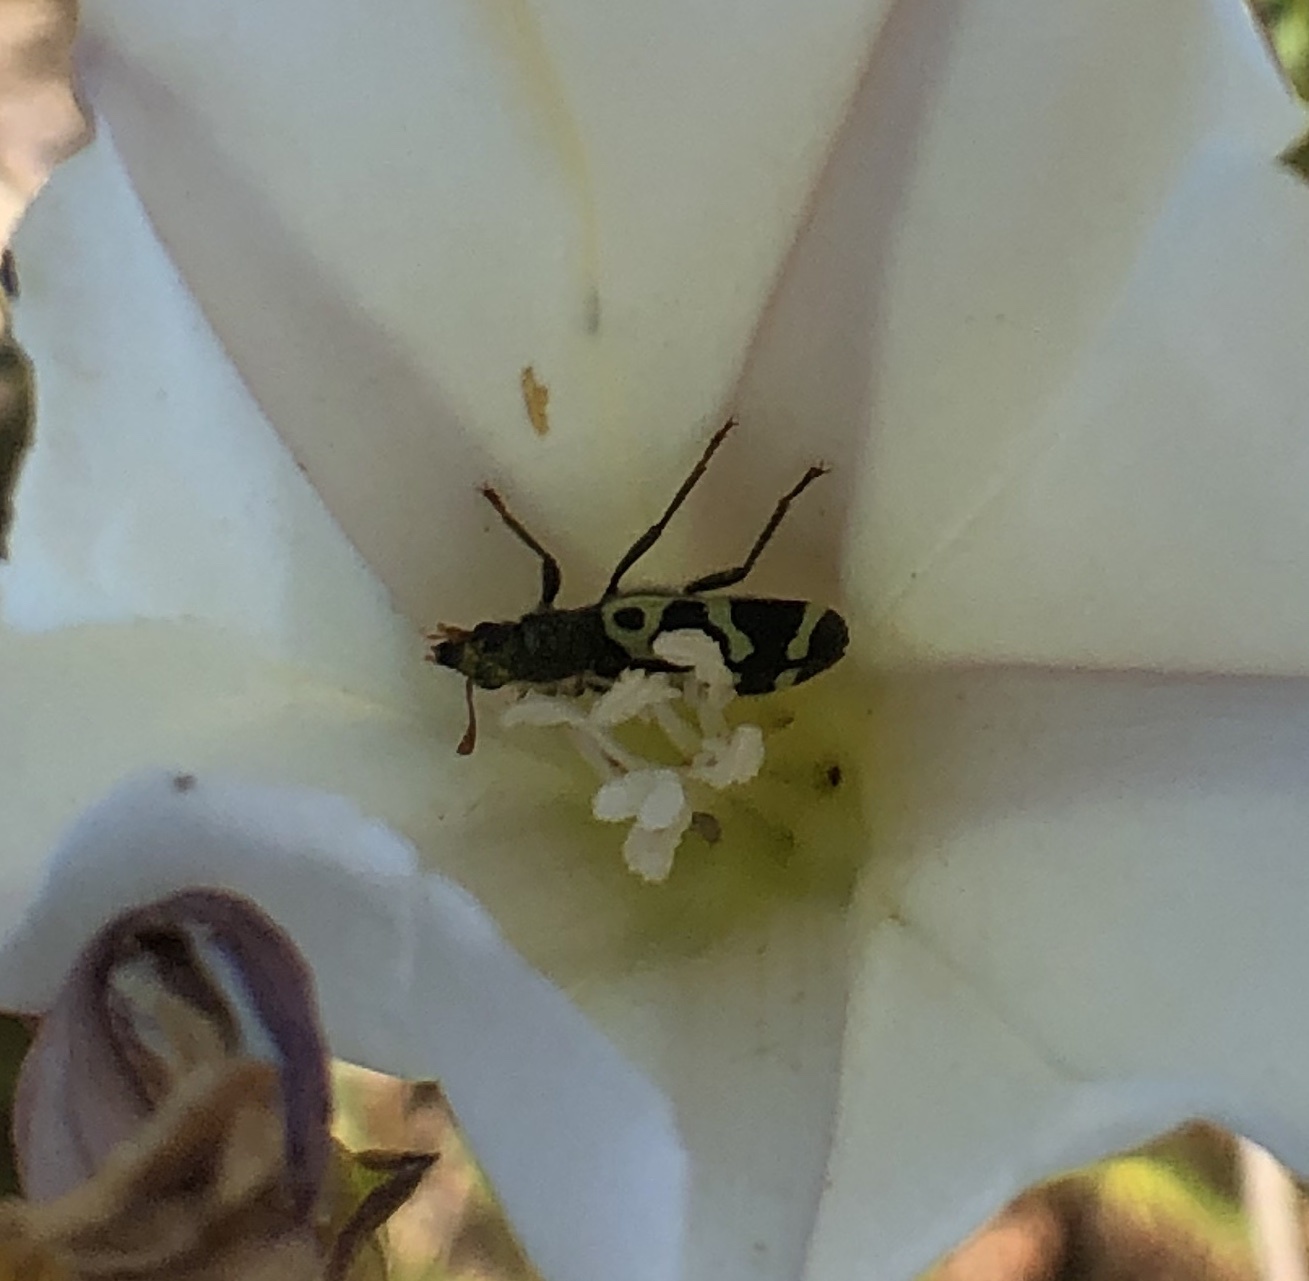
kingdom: Animalia
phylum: Arthropoda
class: Insecta
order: Coleoptera
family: Cleridae
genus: Trichodes
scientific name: Trichodes ornatus
